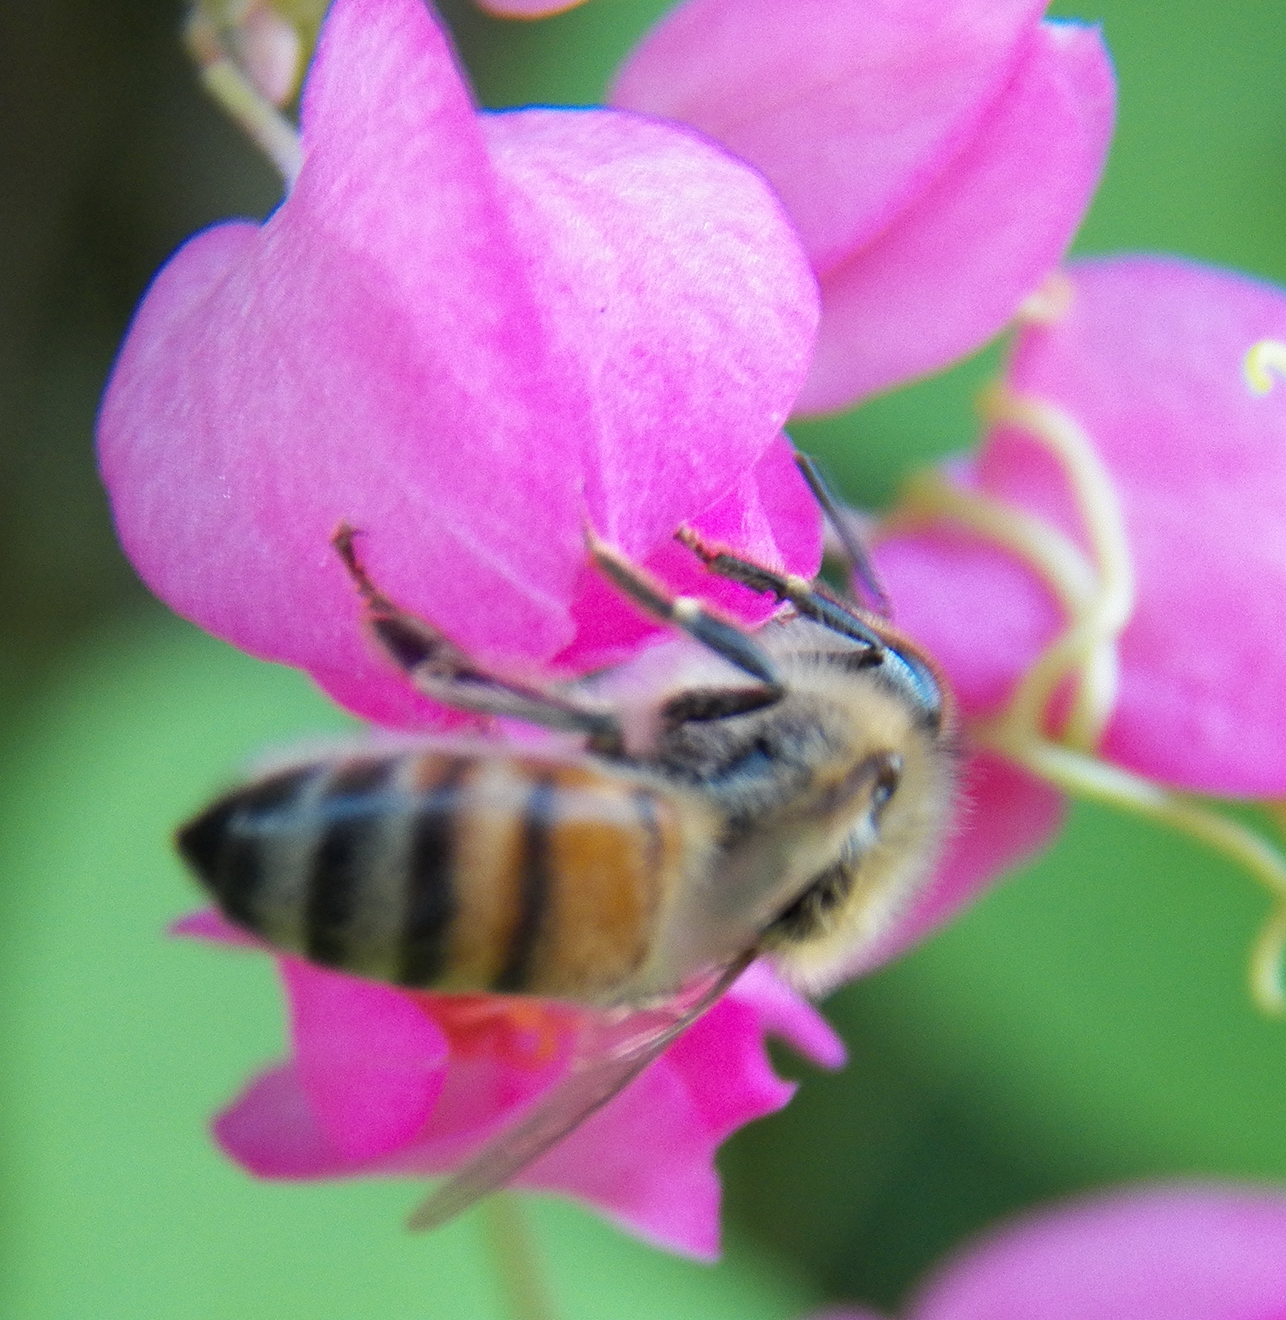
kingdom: Animalia
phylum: Arthropoda
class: Insecta
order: Hymenoptera
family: Apidae
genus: Apis
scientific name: Apis mellifera
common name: Honey bee
